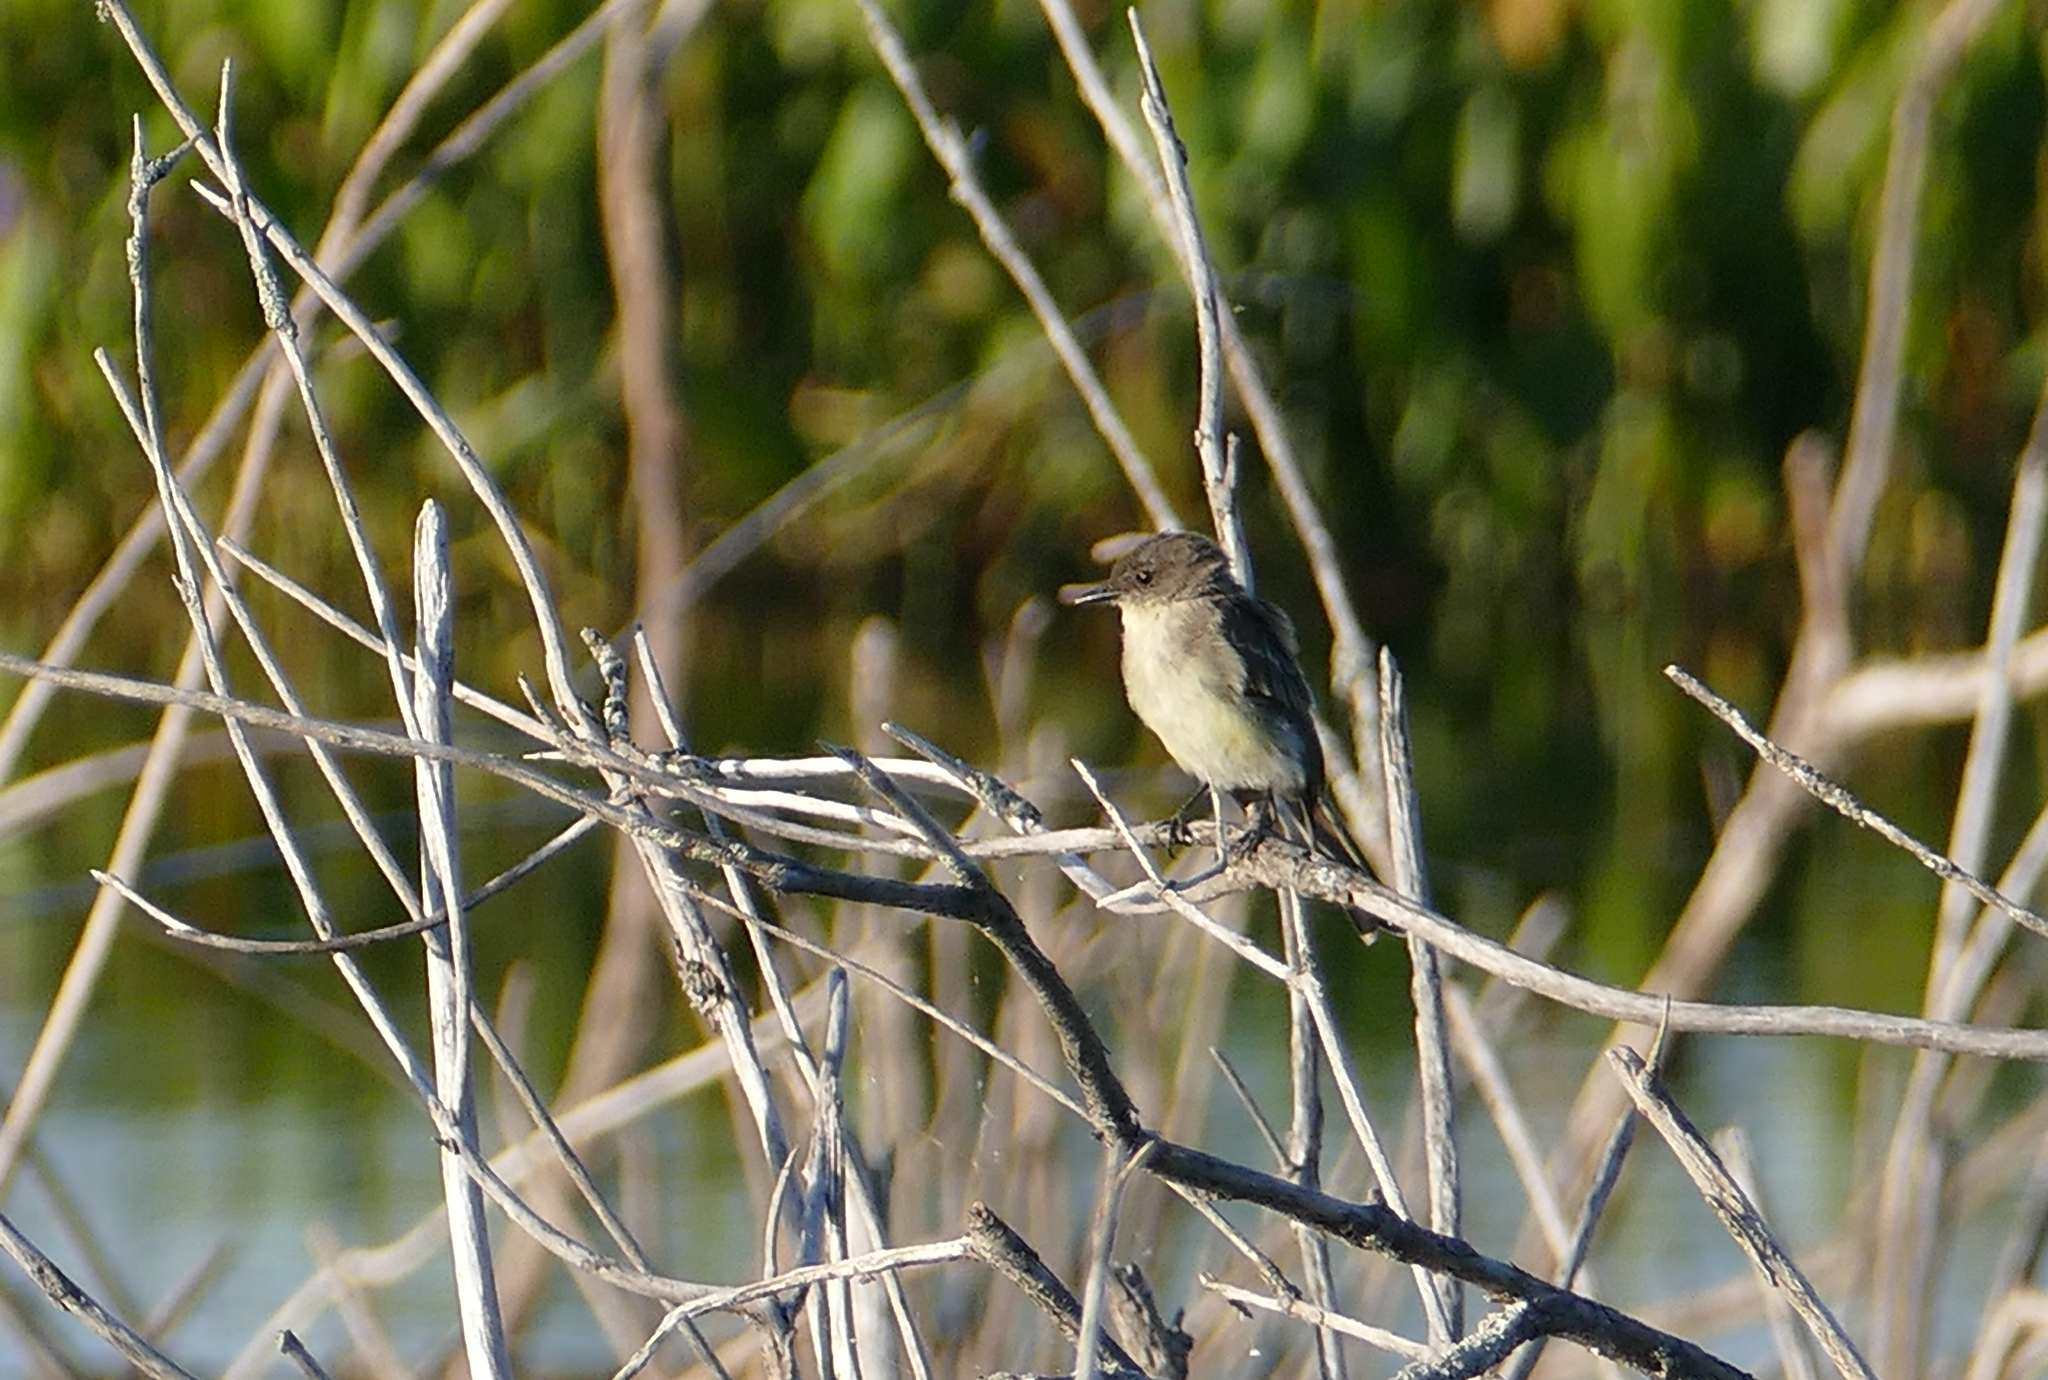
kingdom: Animalia
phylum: Chordata
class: Aves
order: Passeriformes
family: Tyrannidae
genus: Sayornis
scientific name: Sayornis phoebe
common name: Eastern phoebe
